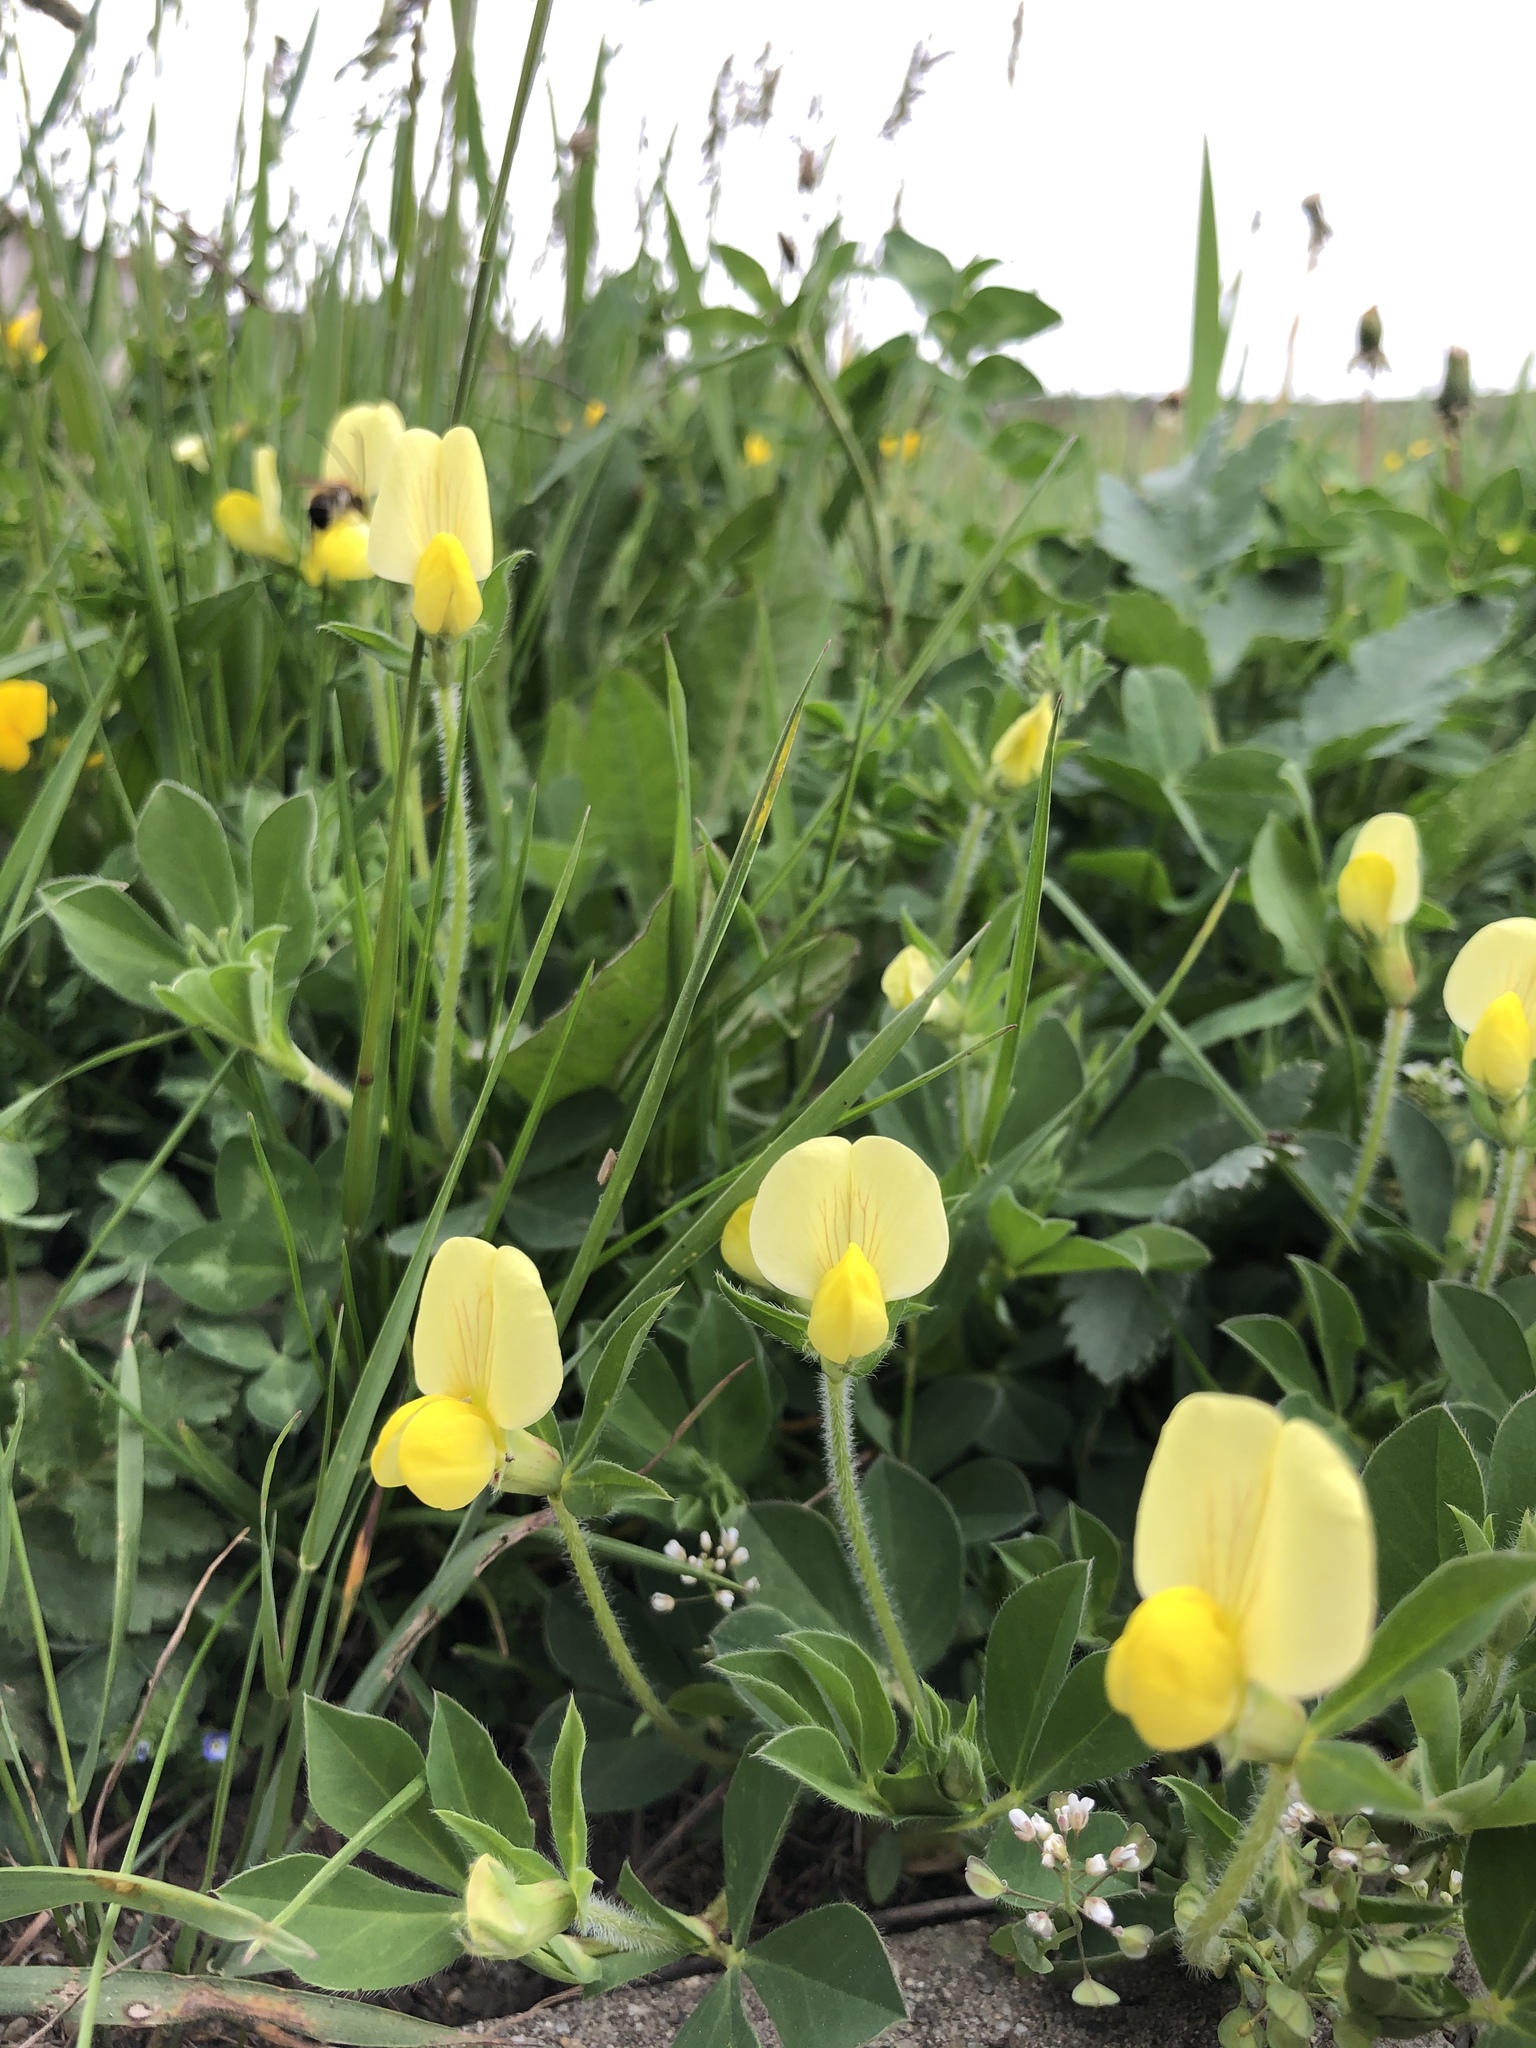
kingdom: Plantae
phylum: Tracheophyta
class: Magnoliopsida
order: Fabales
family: Fabaceae
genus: Lotus
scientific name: Lotus maritimus
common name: Dragon's-teeth
